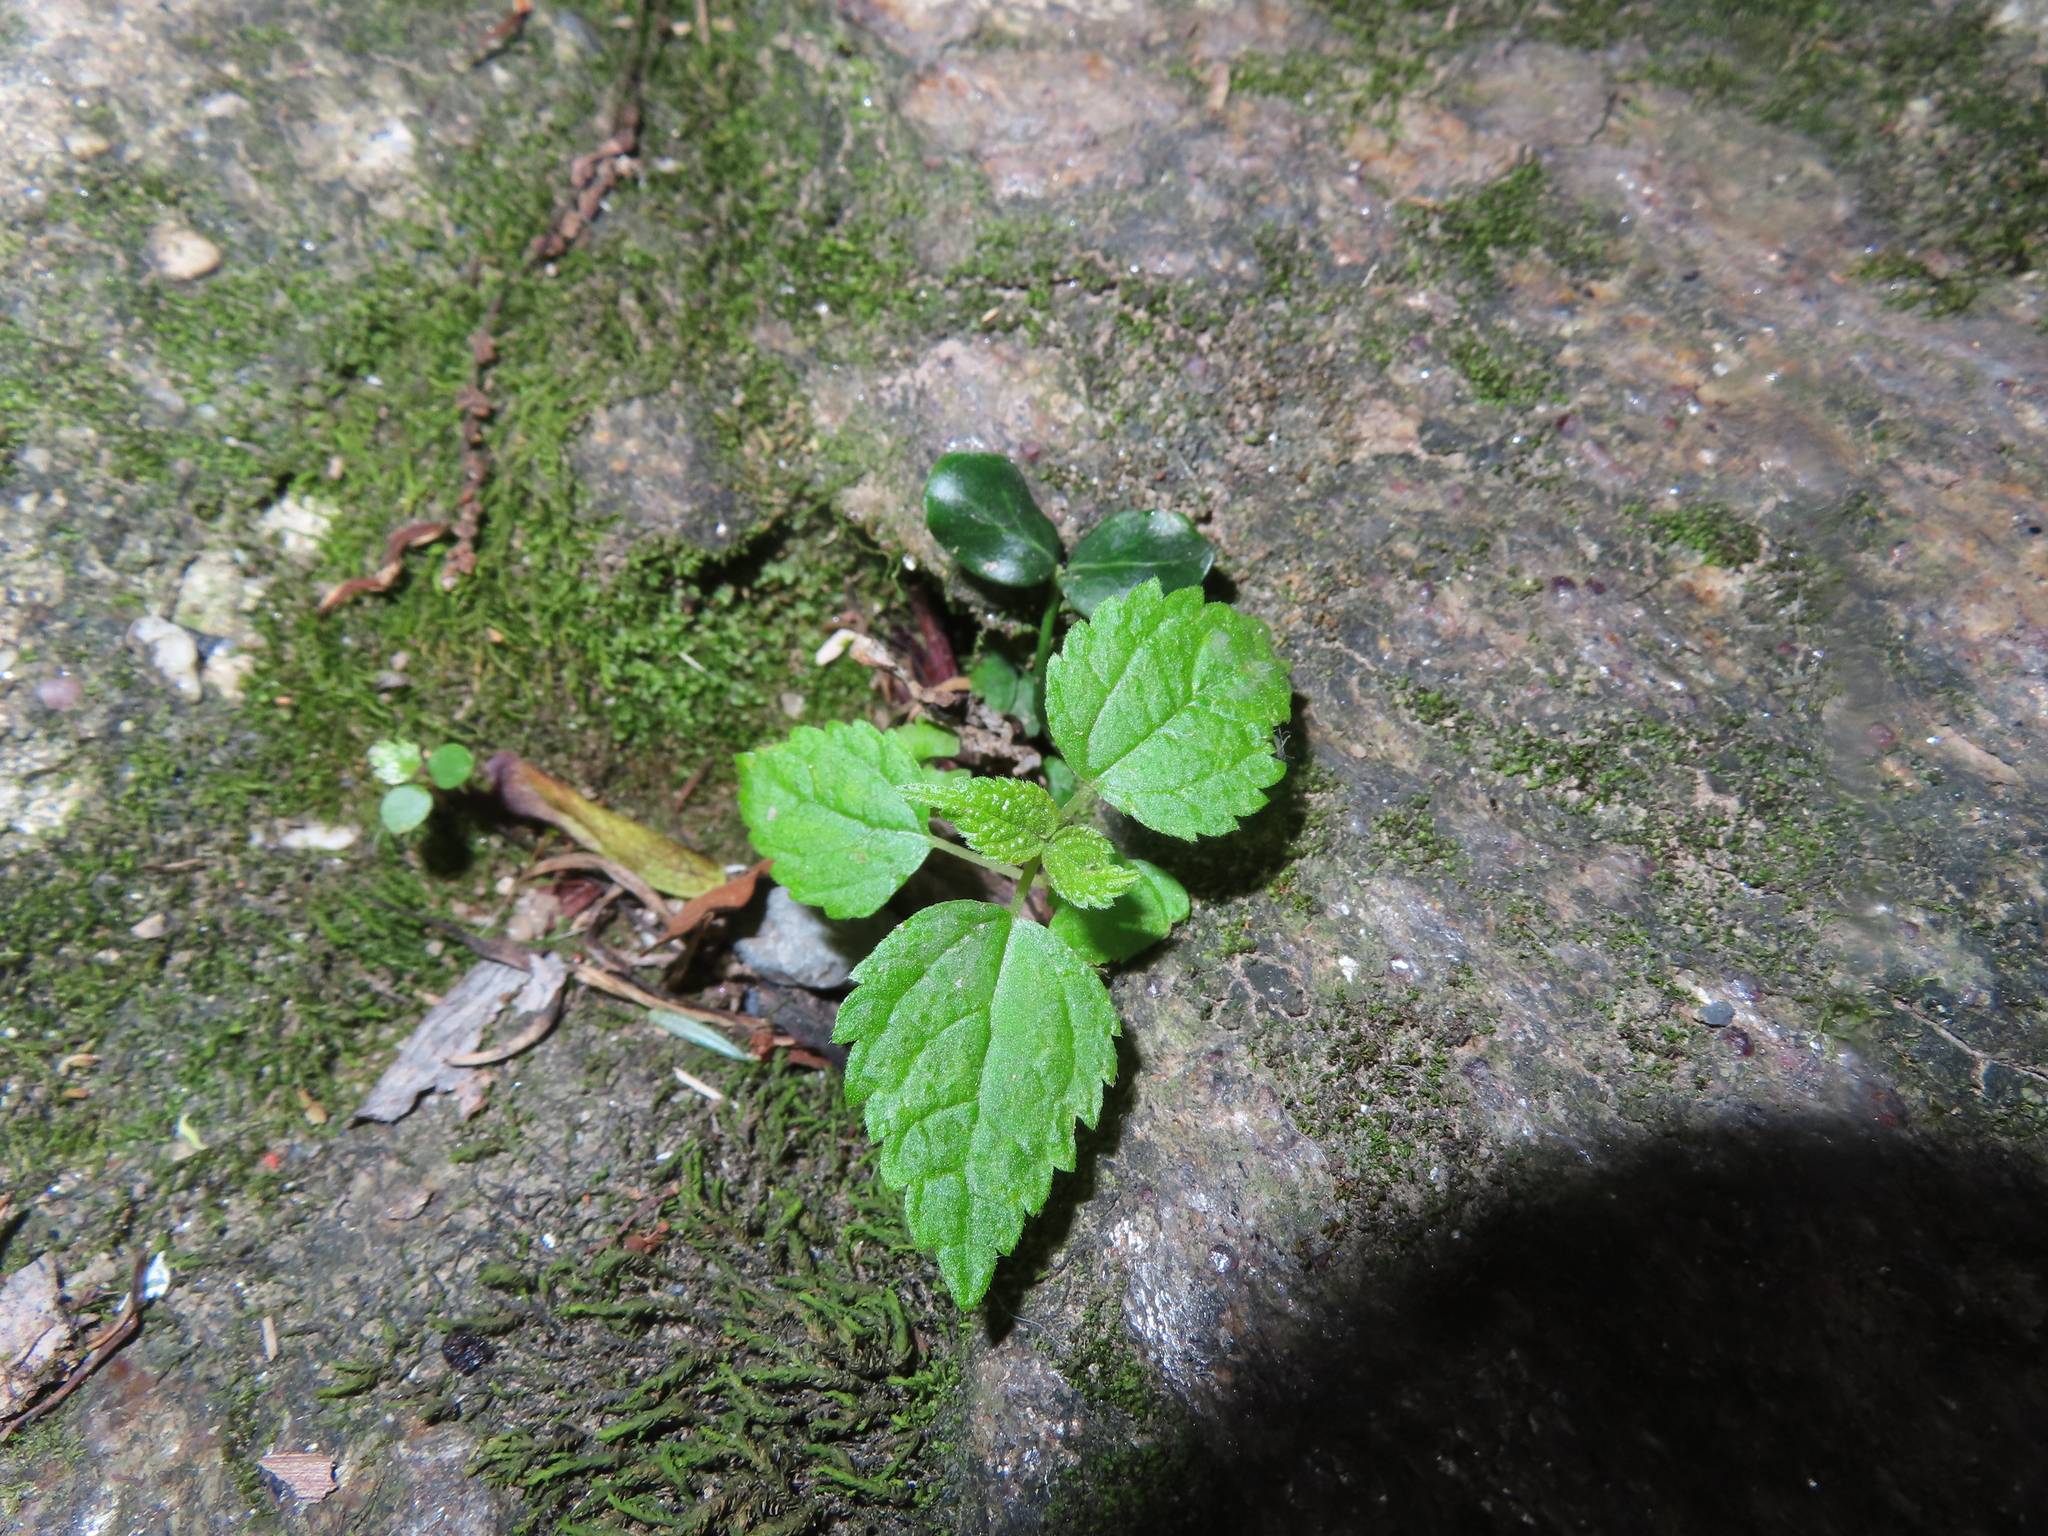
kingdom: Plantae
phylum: Tracheophyta
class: Magnoliopsida
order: Rosales
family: Urticaceae
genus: Pilea
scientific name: Pilea pumila
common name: Clearweed
